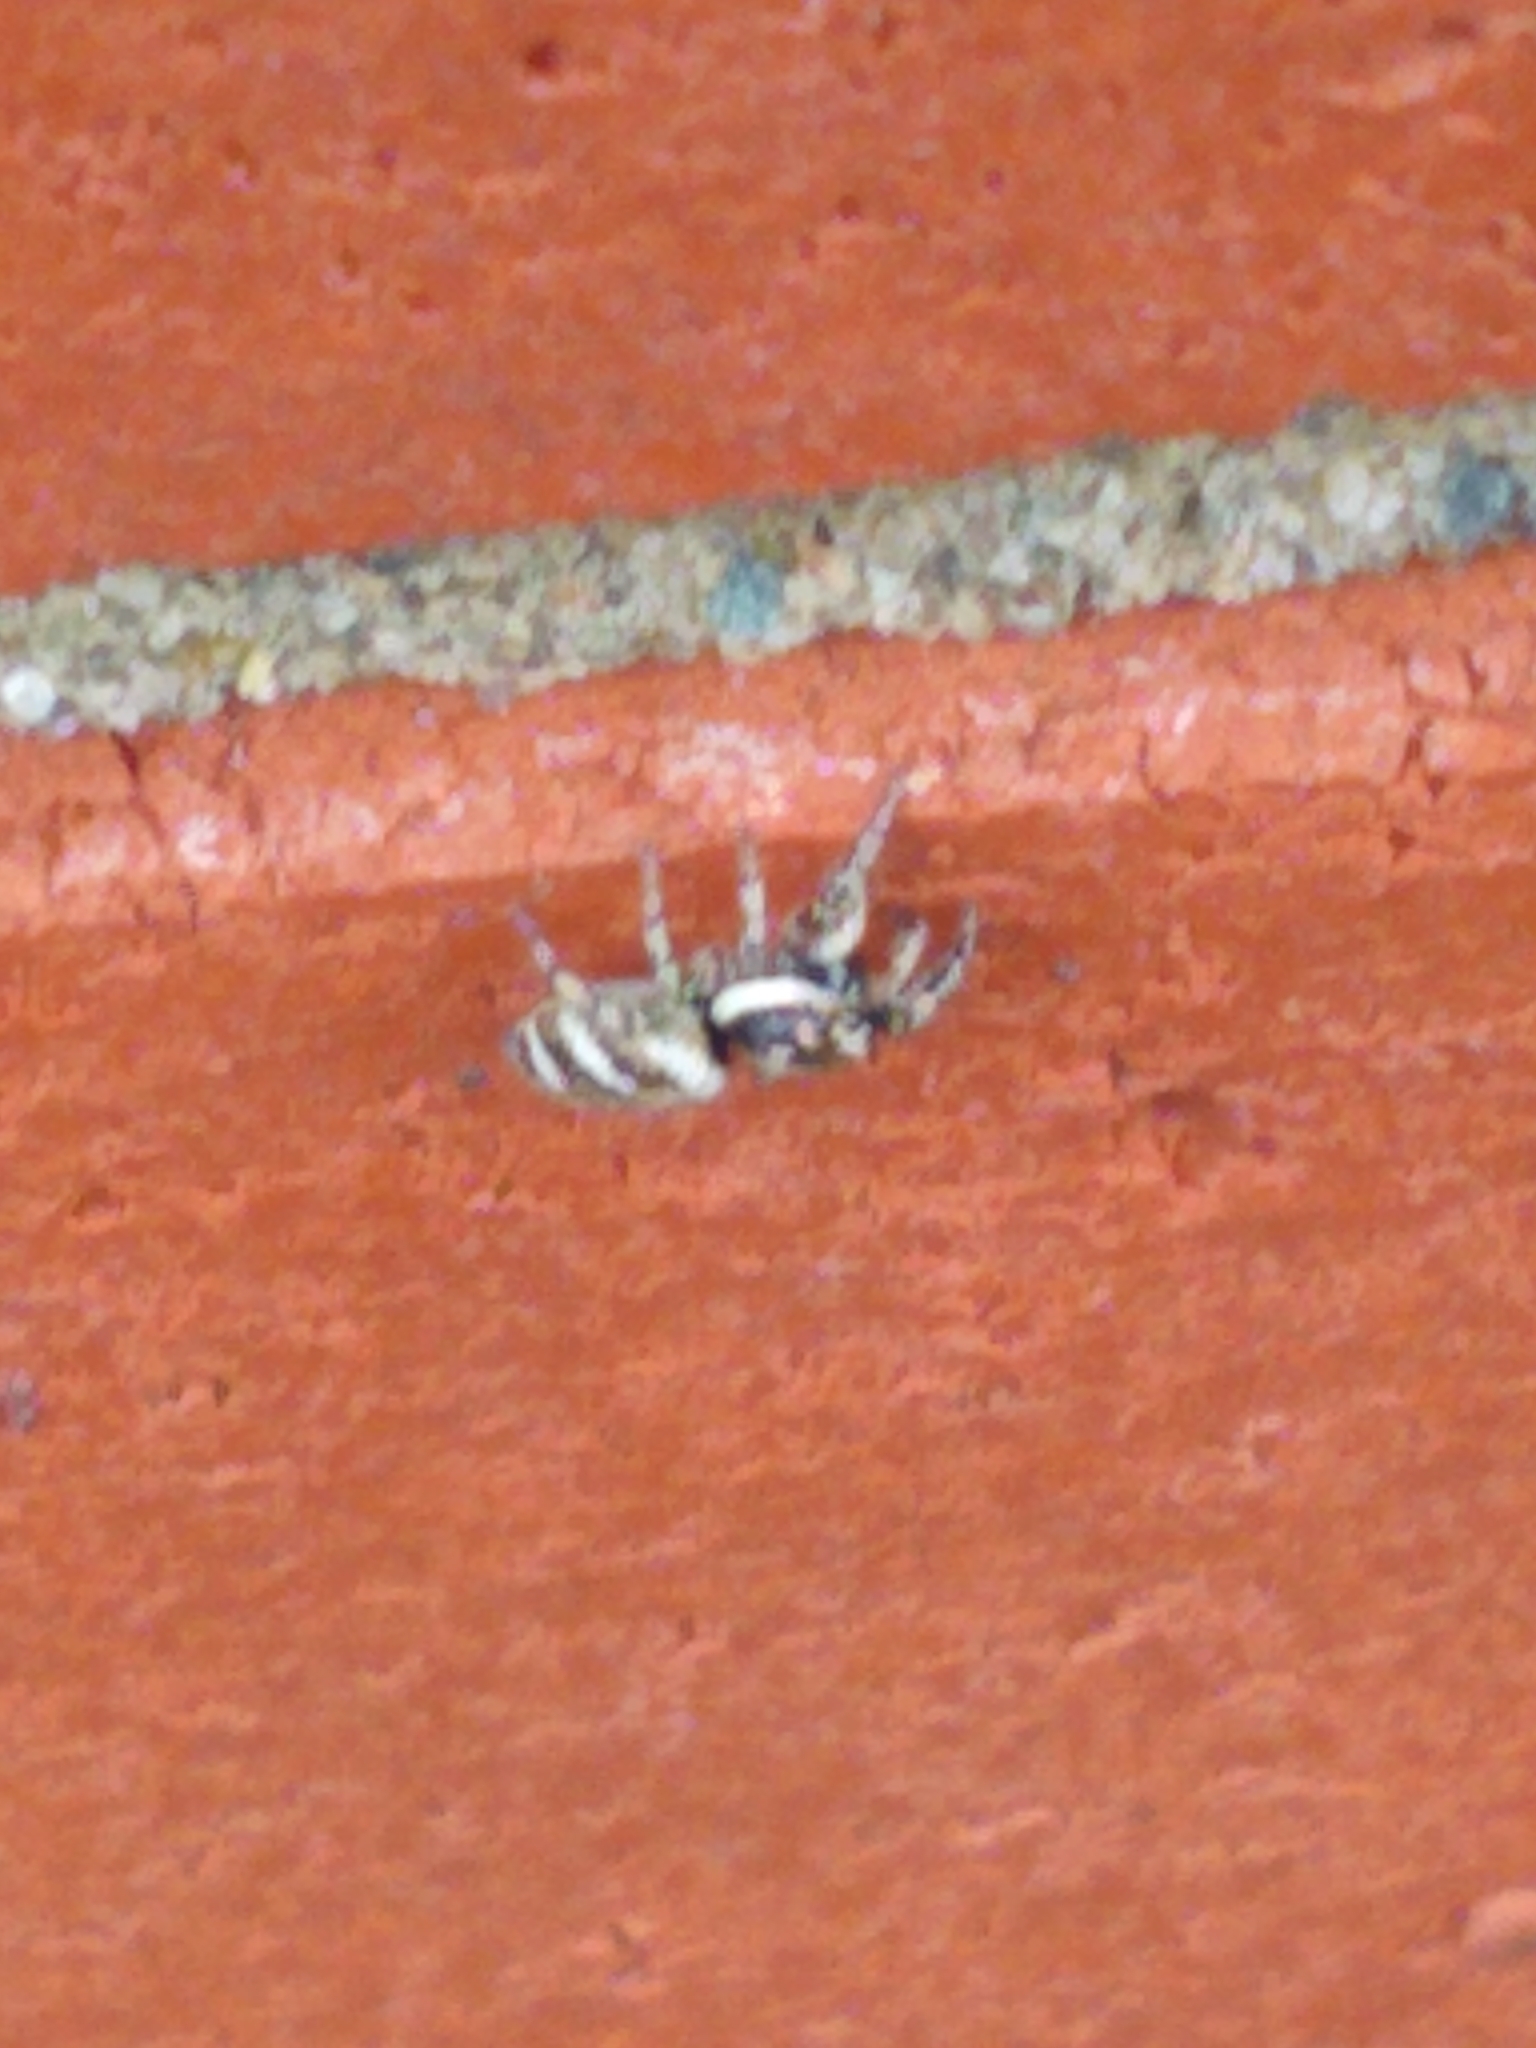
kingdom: Animalia
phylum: Arthropoda
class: Arachnida
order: Araneae
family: Salticidae
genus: Salticus
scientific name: Salticus scenicus
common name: Zebra jumper
